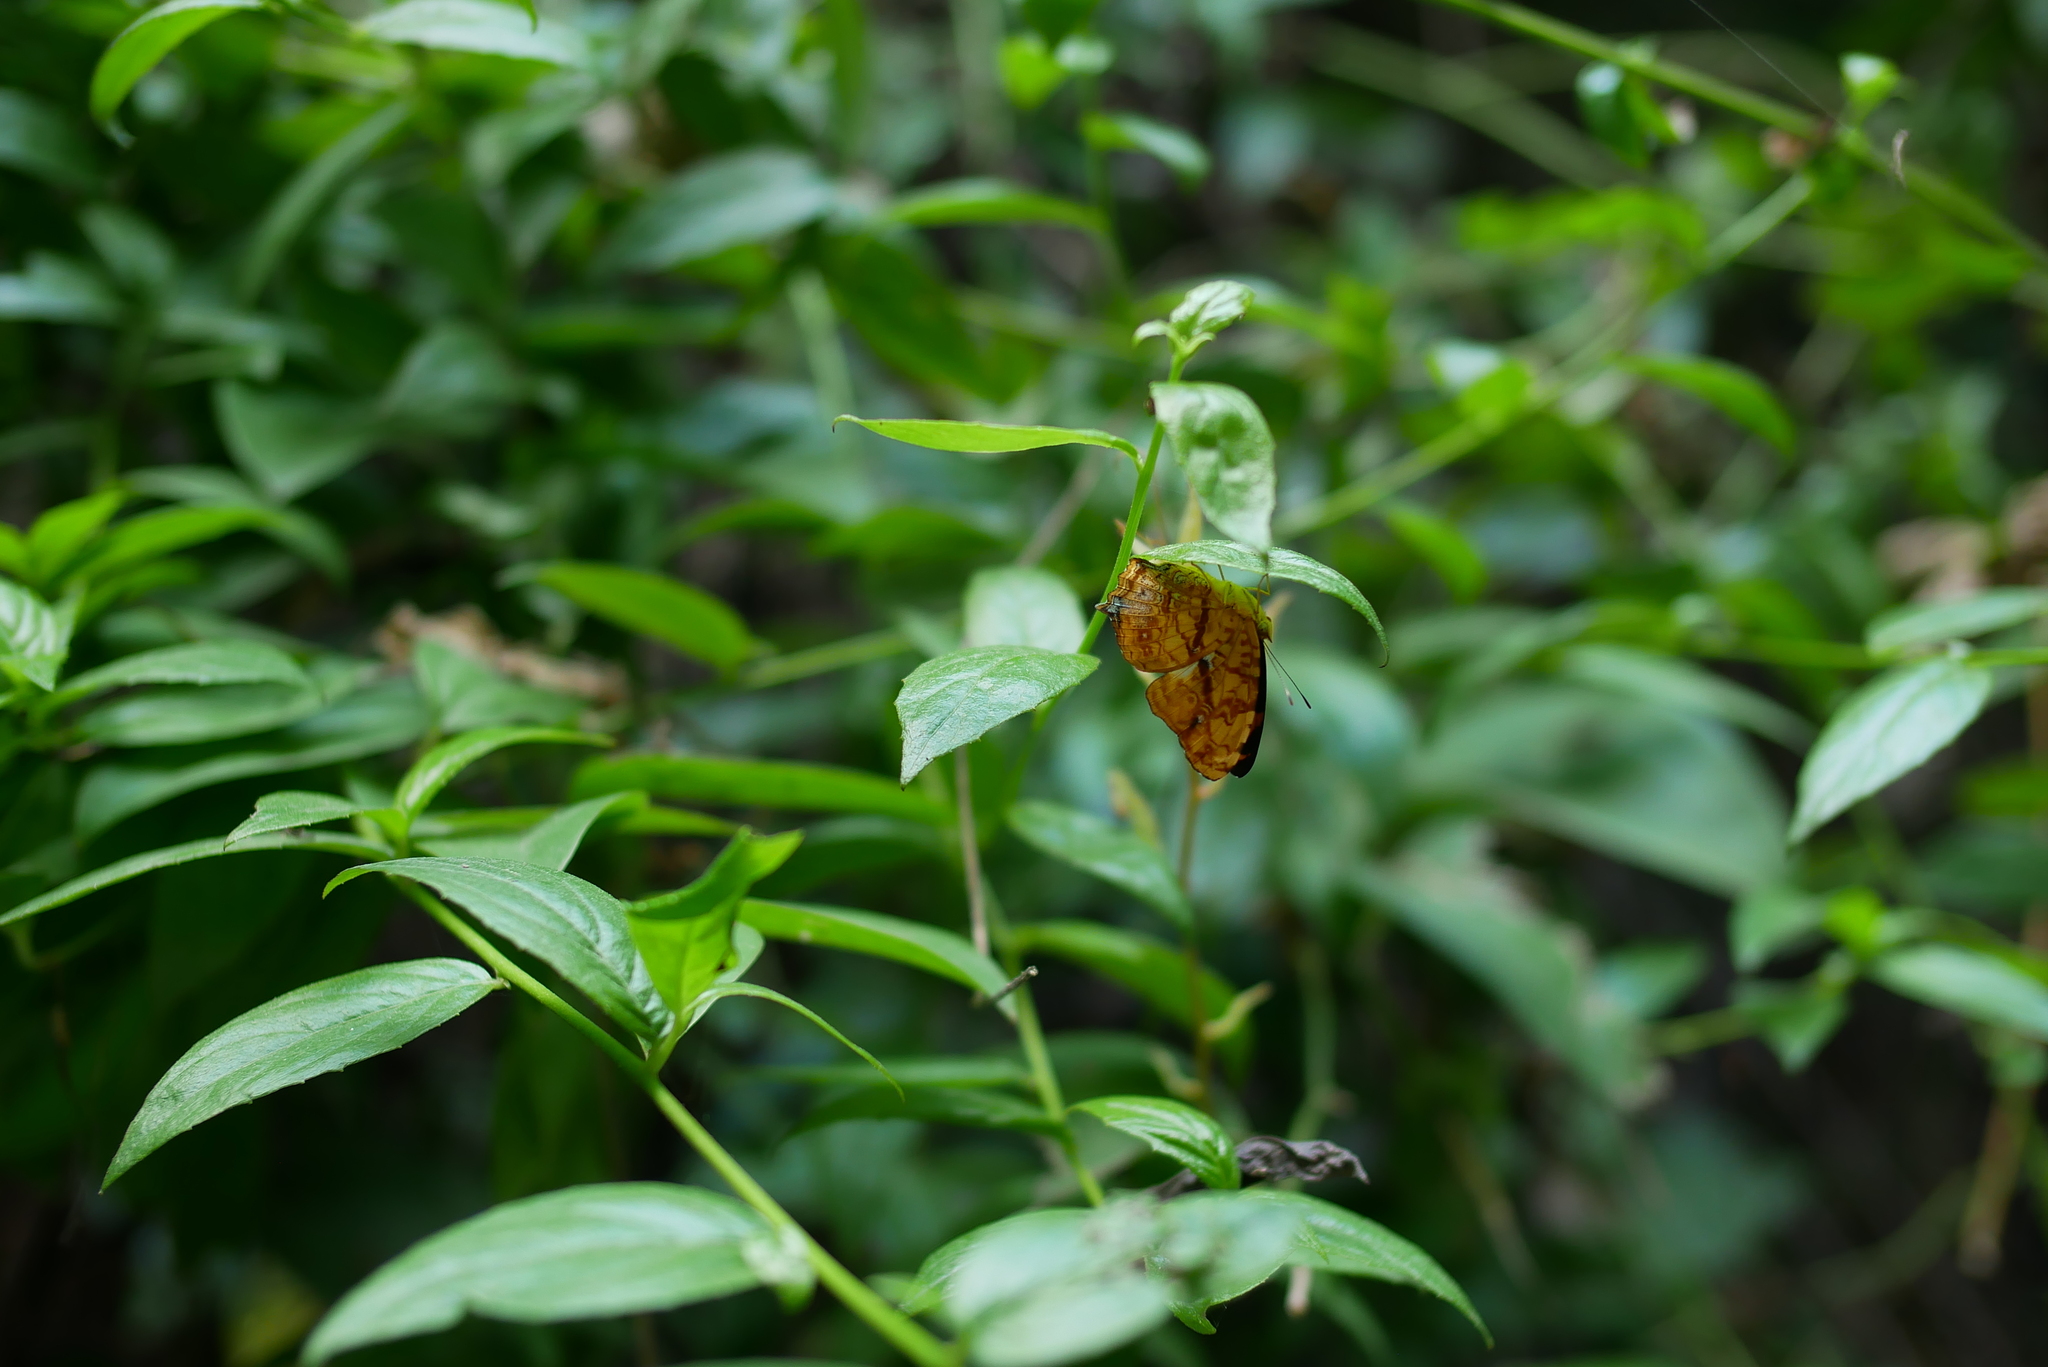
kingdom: Animalia
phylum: Arthropoda
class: Insecta
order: Lepidoptera
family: Nymphalidae
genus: Symbrenthia
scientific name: Symbrenthia hypselis
